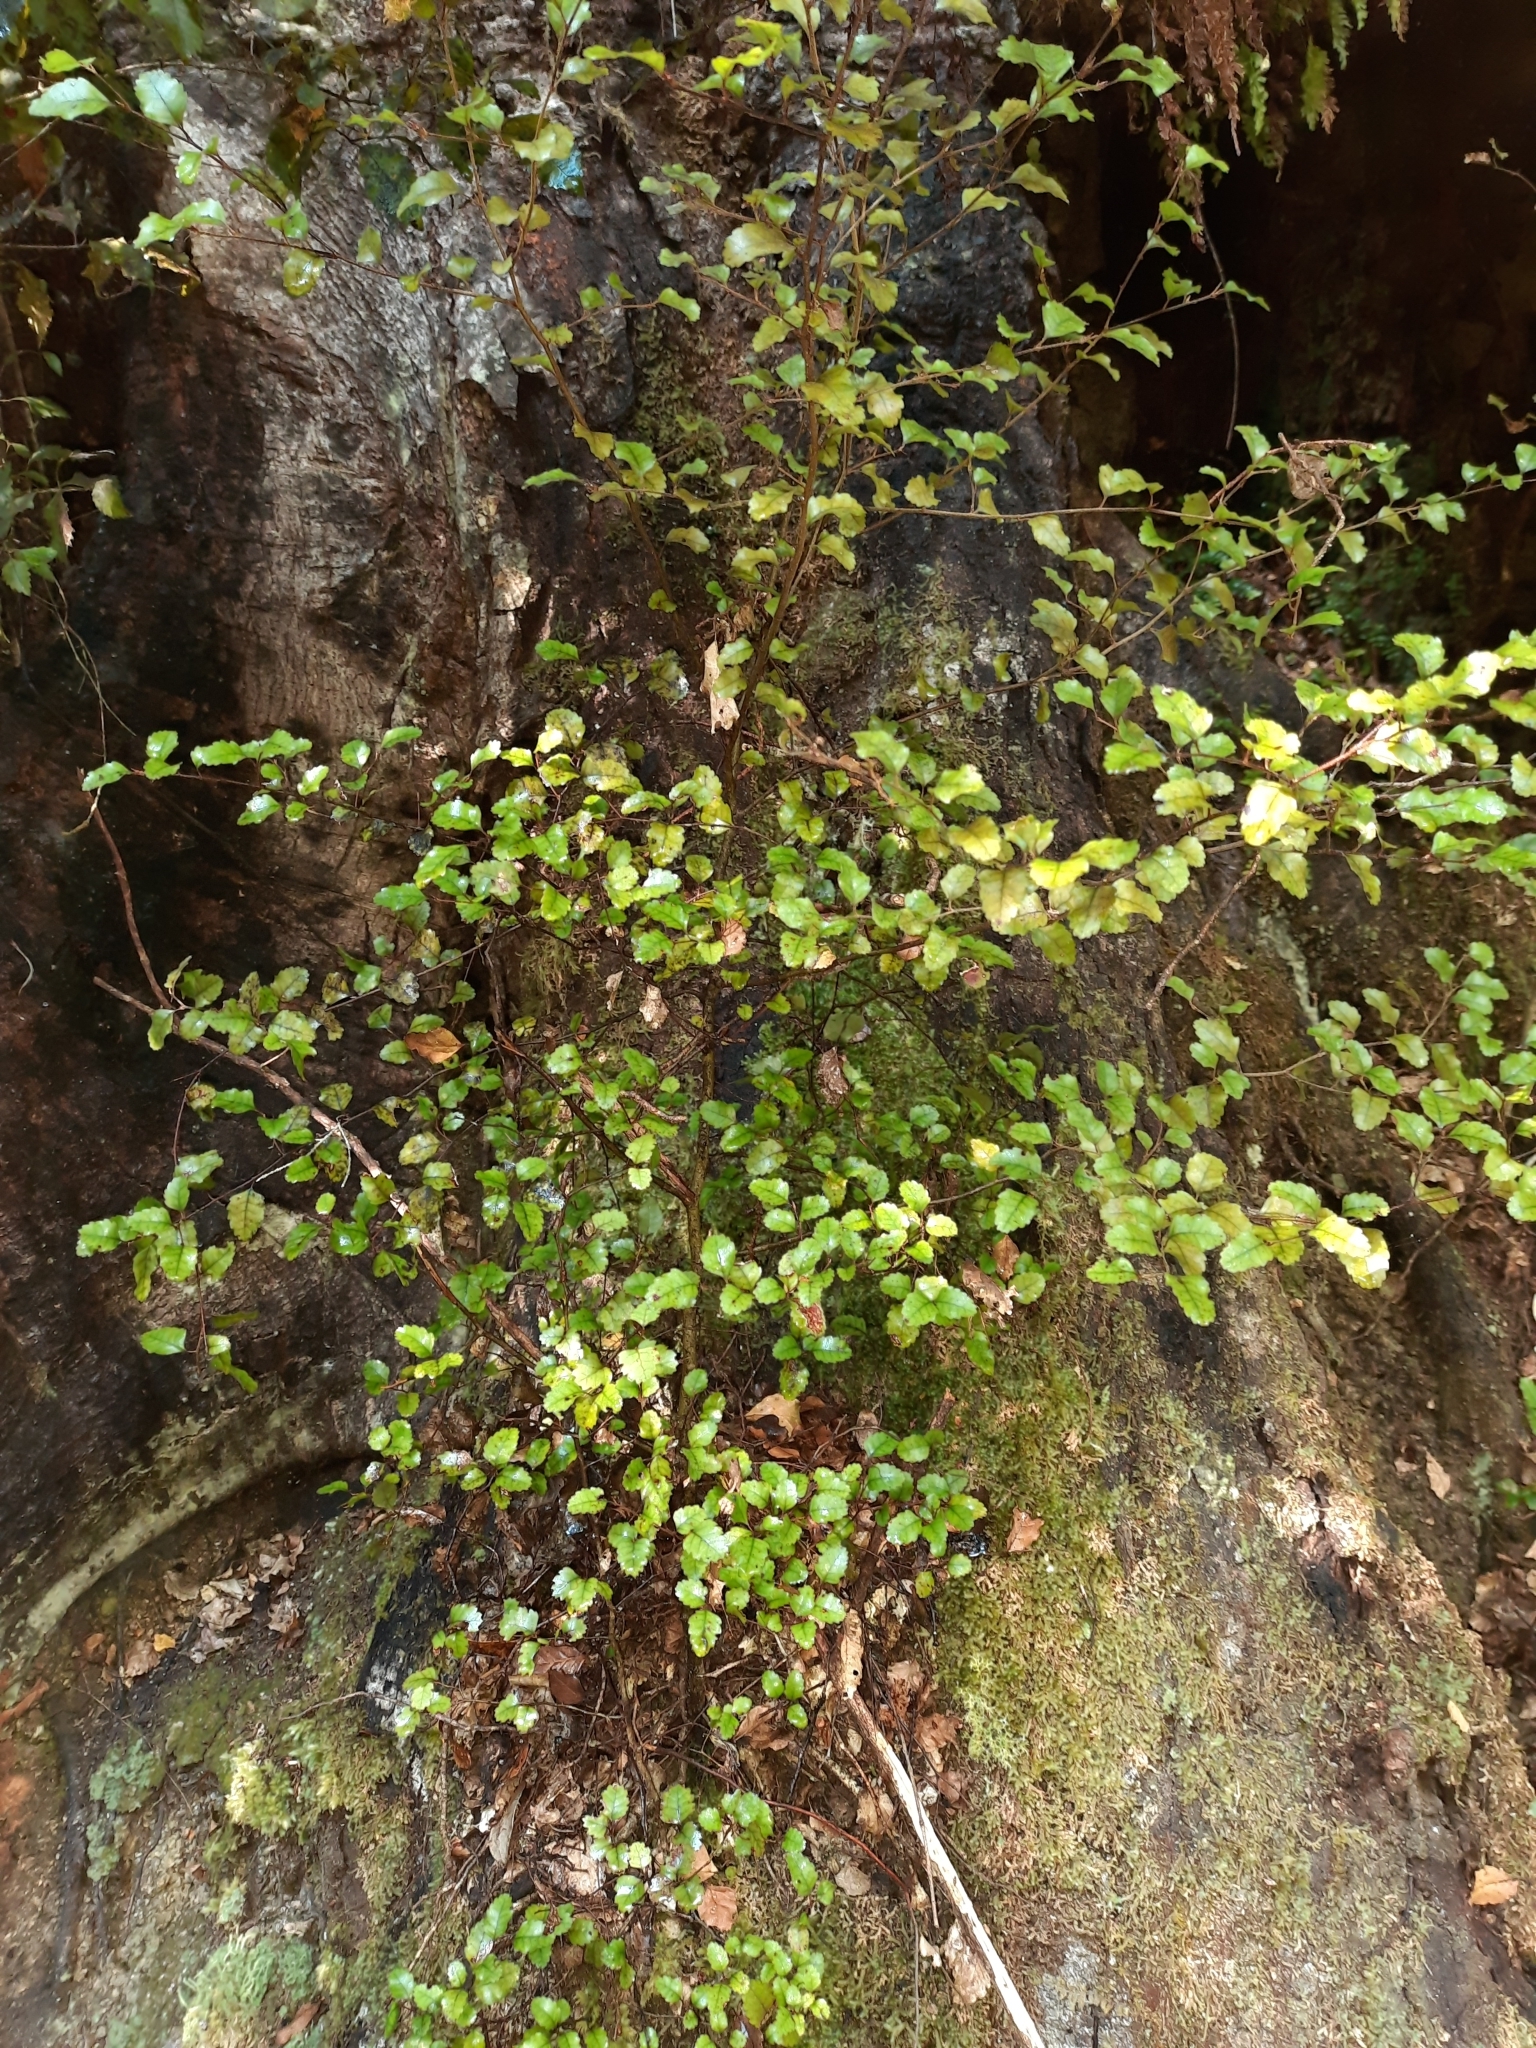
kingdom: Plantae
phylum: Tracheophyta
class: Magnoliopsida
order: Fagales
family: Nothofagaceae
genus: Nothofagus
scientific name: Nothofagus truncata
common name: Hard beech
